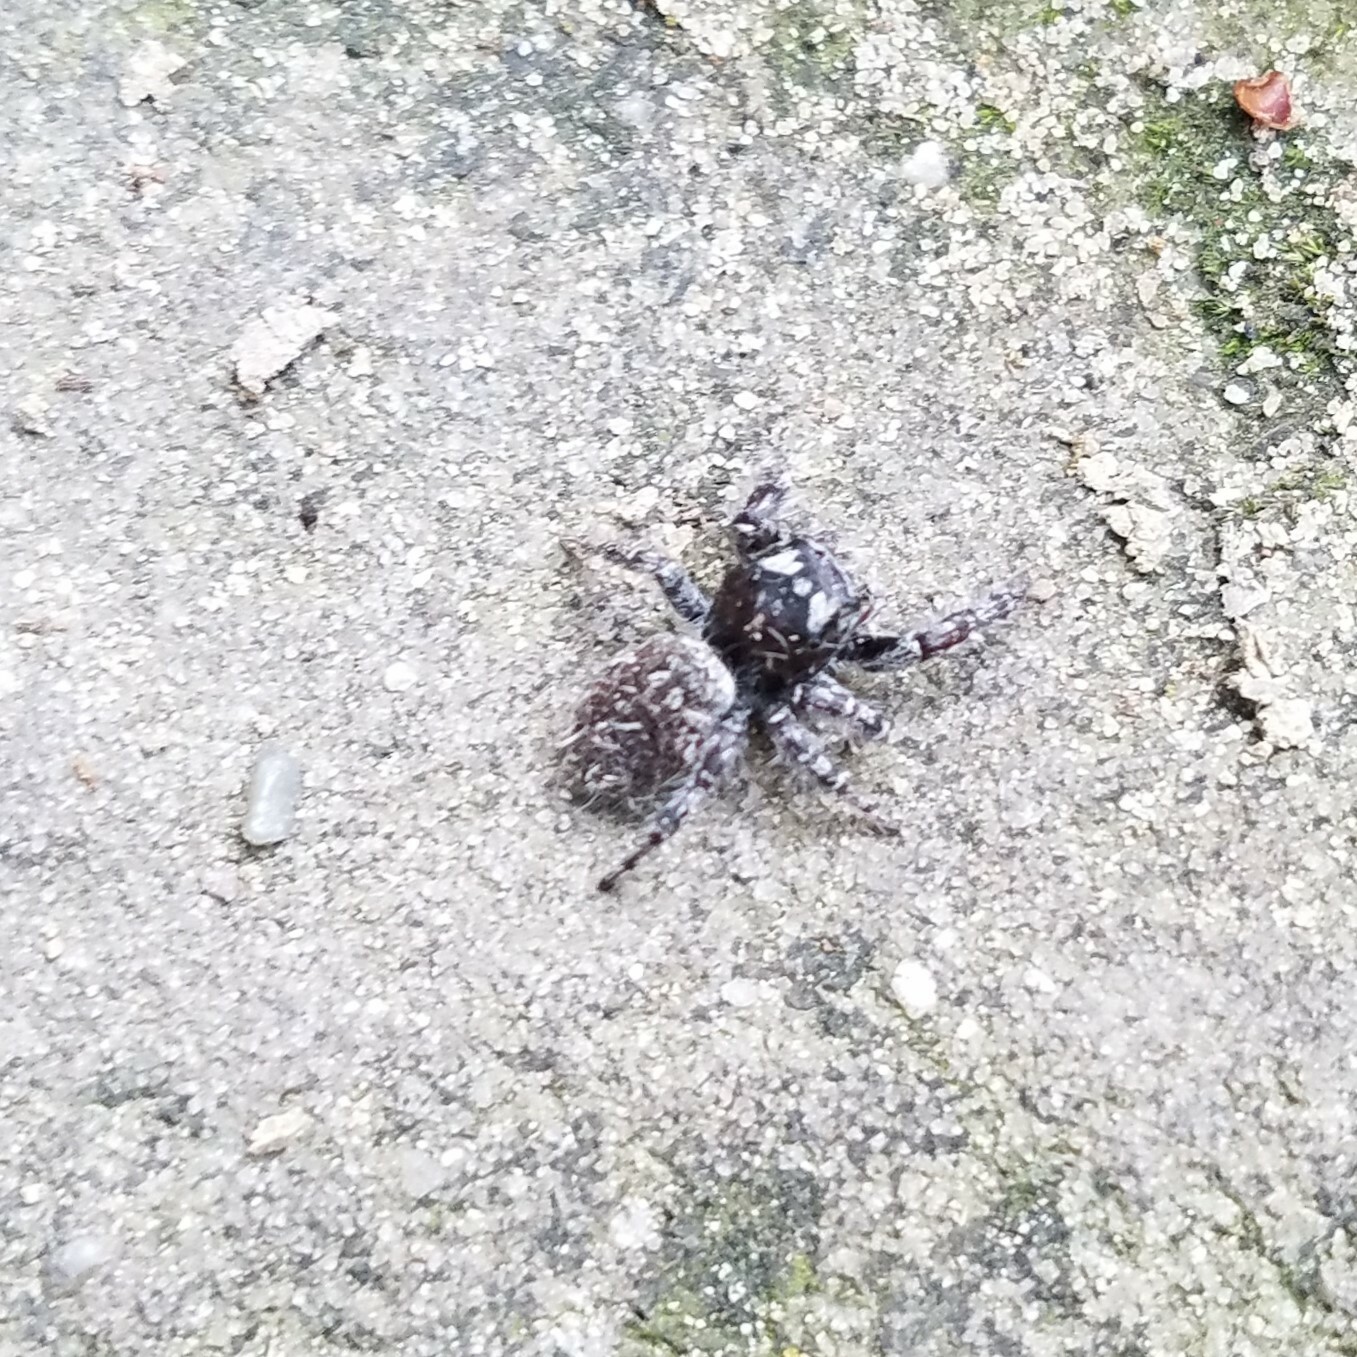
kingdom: Animalia
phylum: Arthropoda
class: Arachnida
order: Araneae
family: Salticidae
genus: Phidippus
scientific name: Phidippus mystaceus
